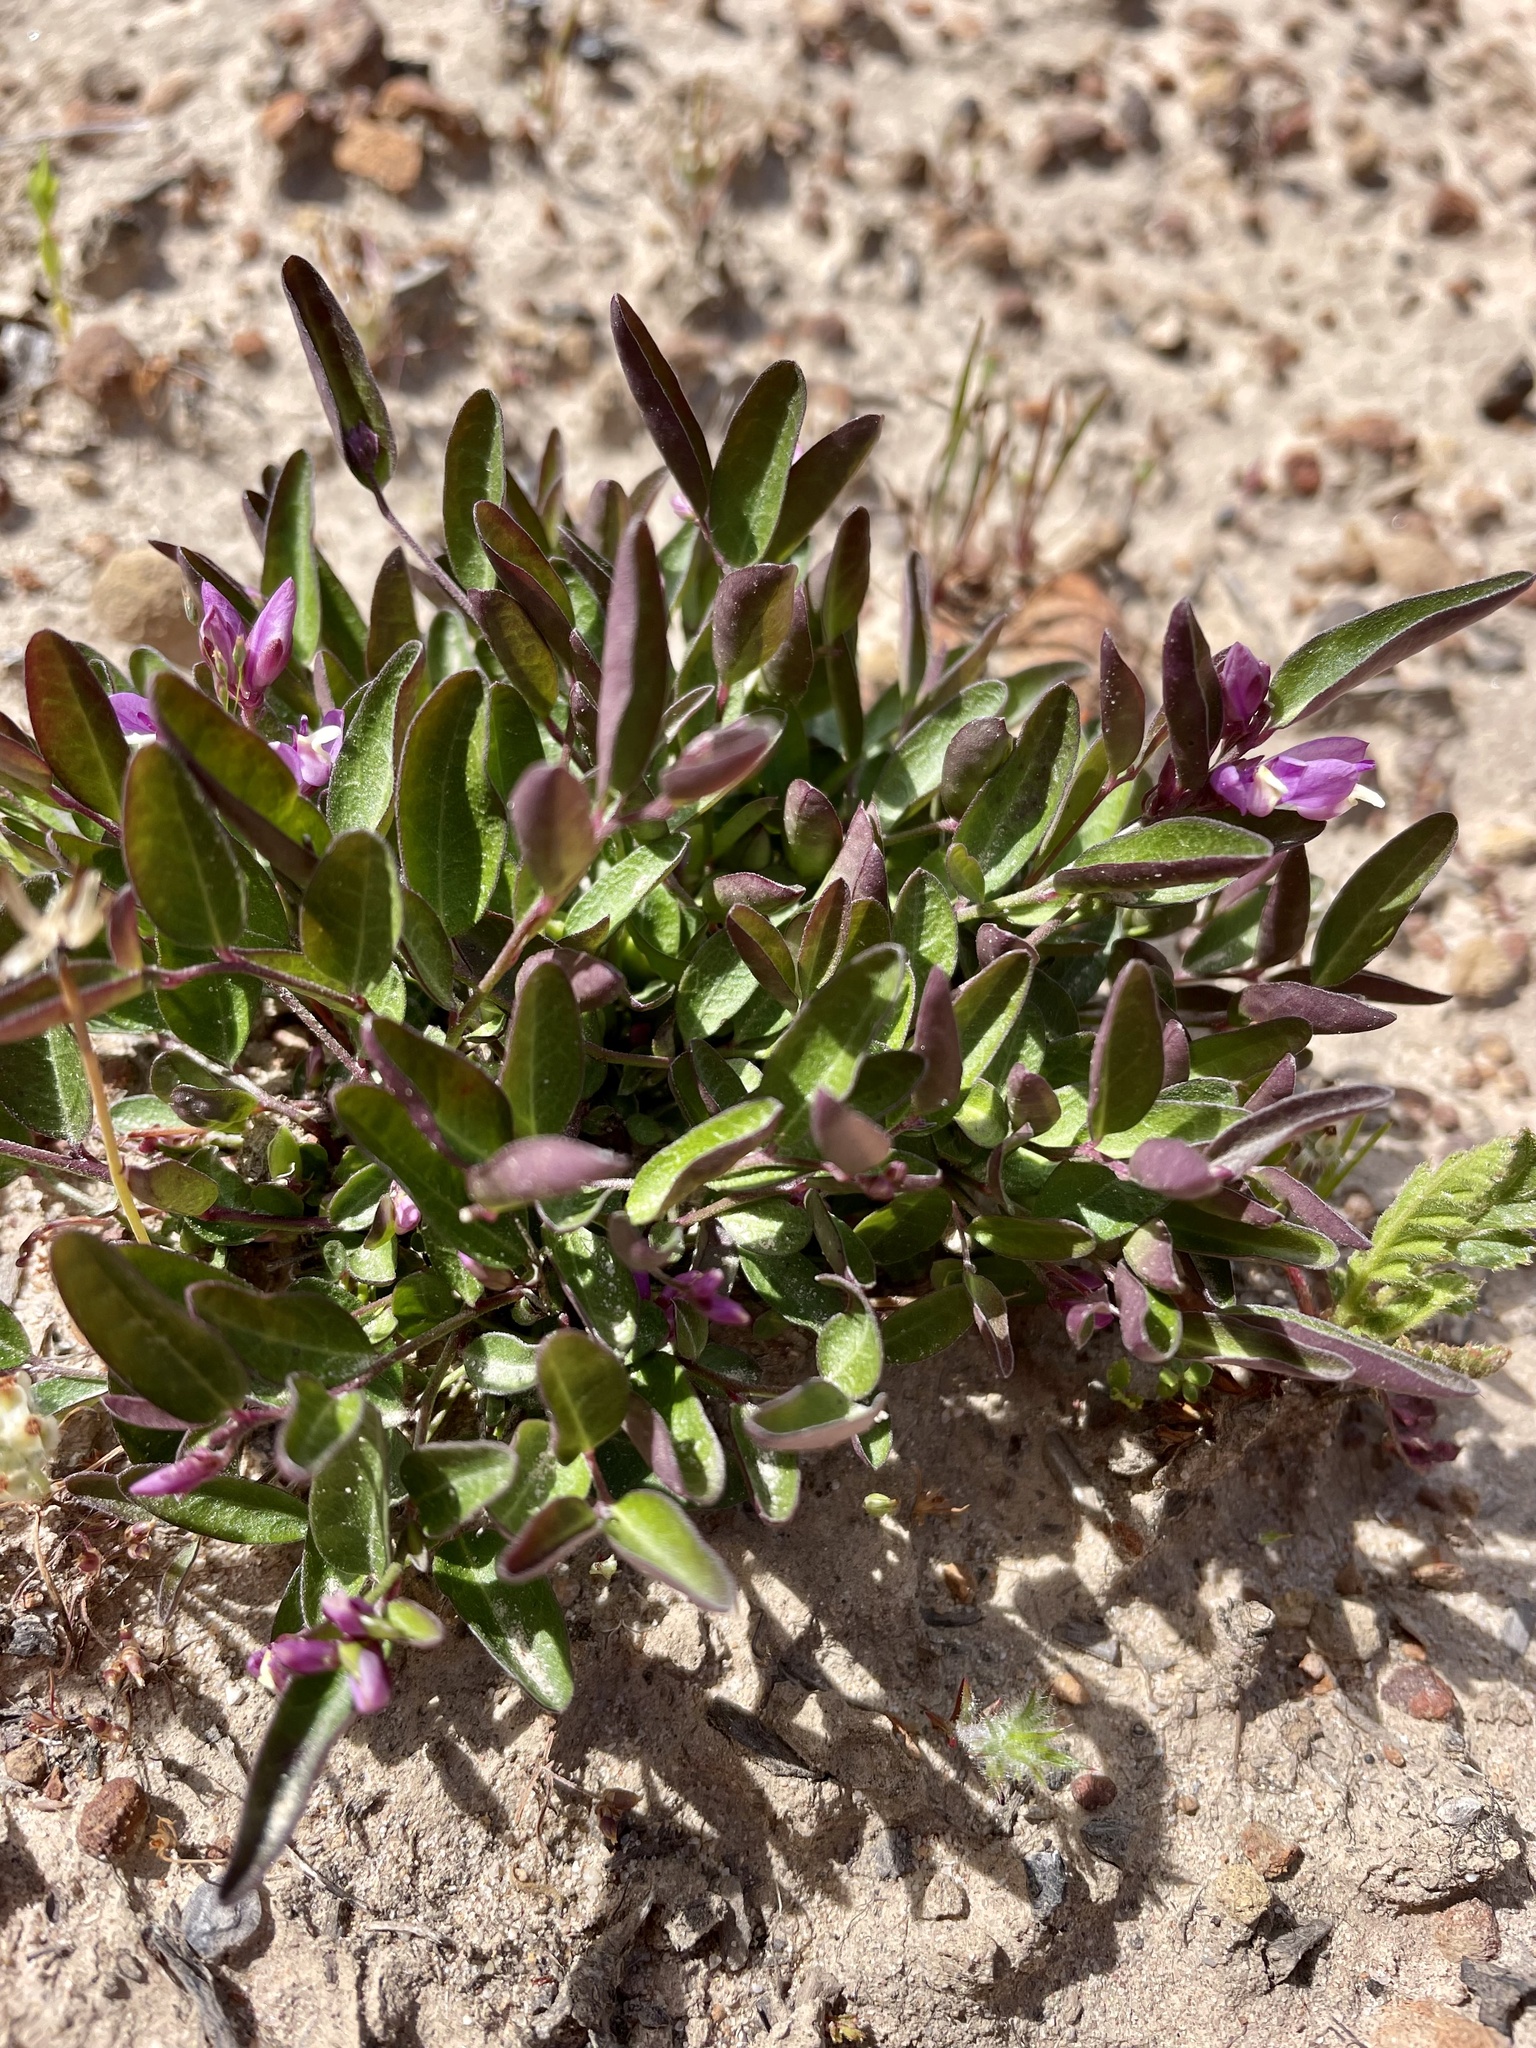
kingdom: Plantae
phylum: Tracheophyta
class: Magnoliopsida
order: Fabales
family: Polygalaceae
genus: Rhinotropis
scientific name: Rhinotropis californica
